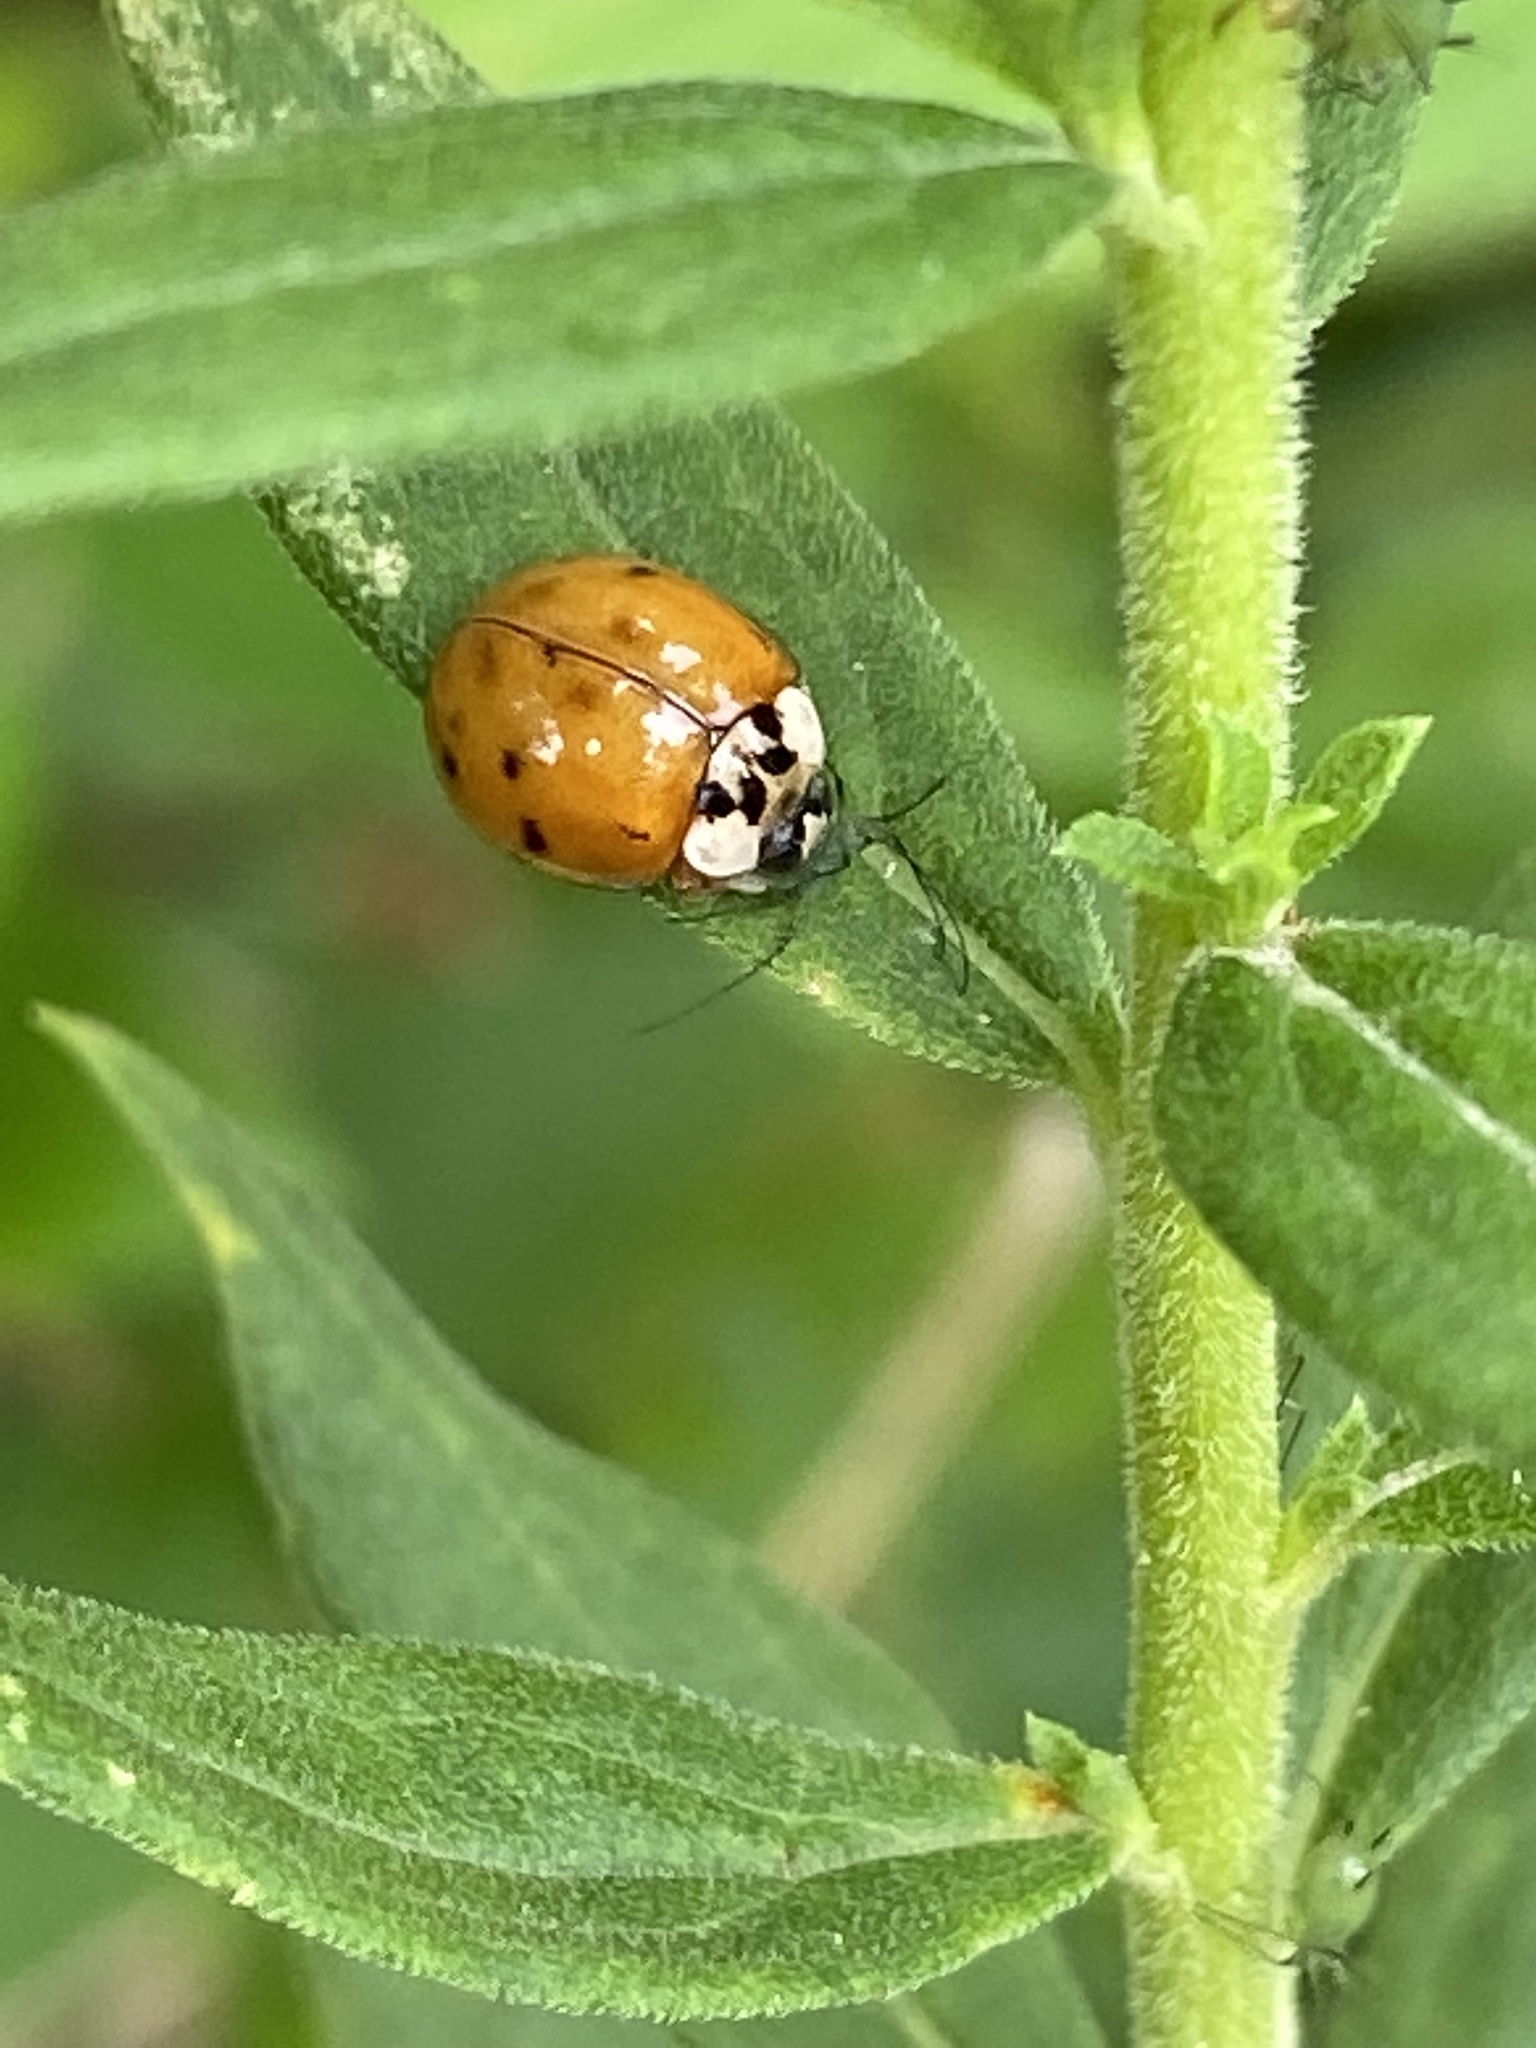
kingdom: Animalia
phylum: Arthropoda
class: Insecta
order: Coleoptera
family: Coccinellidae
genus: Harmonia
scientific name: Harmonia axyridis
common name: Harlequin ladybird
